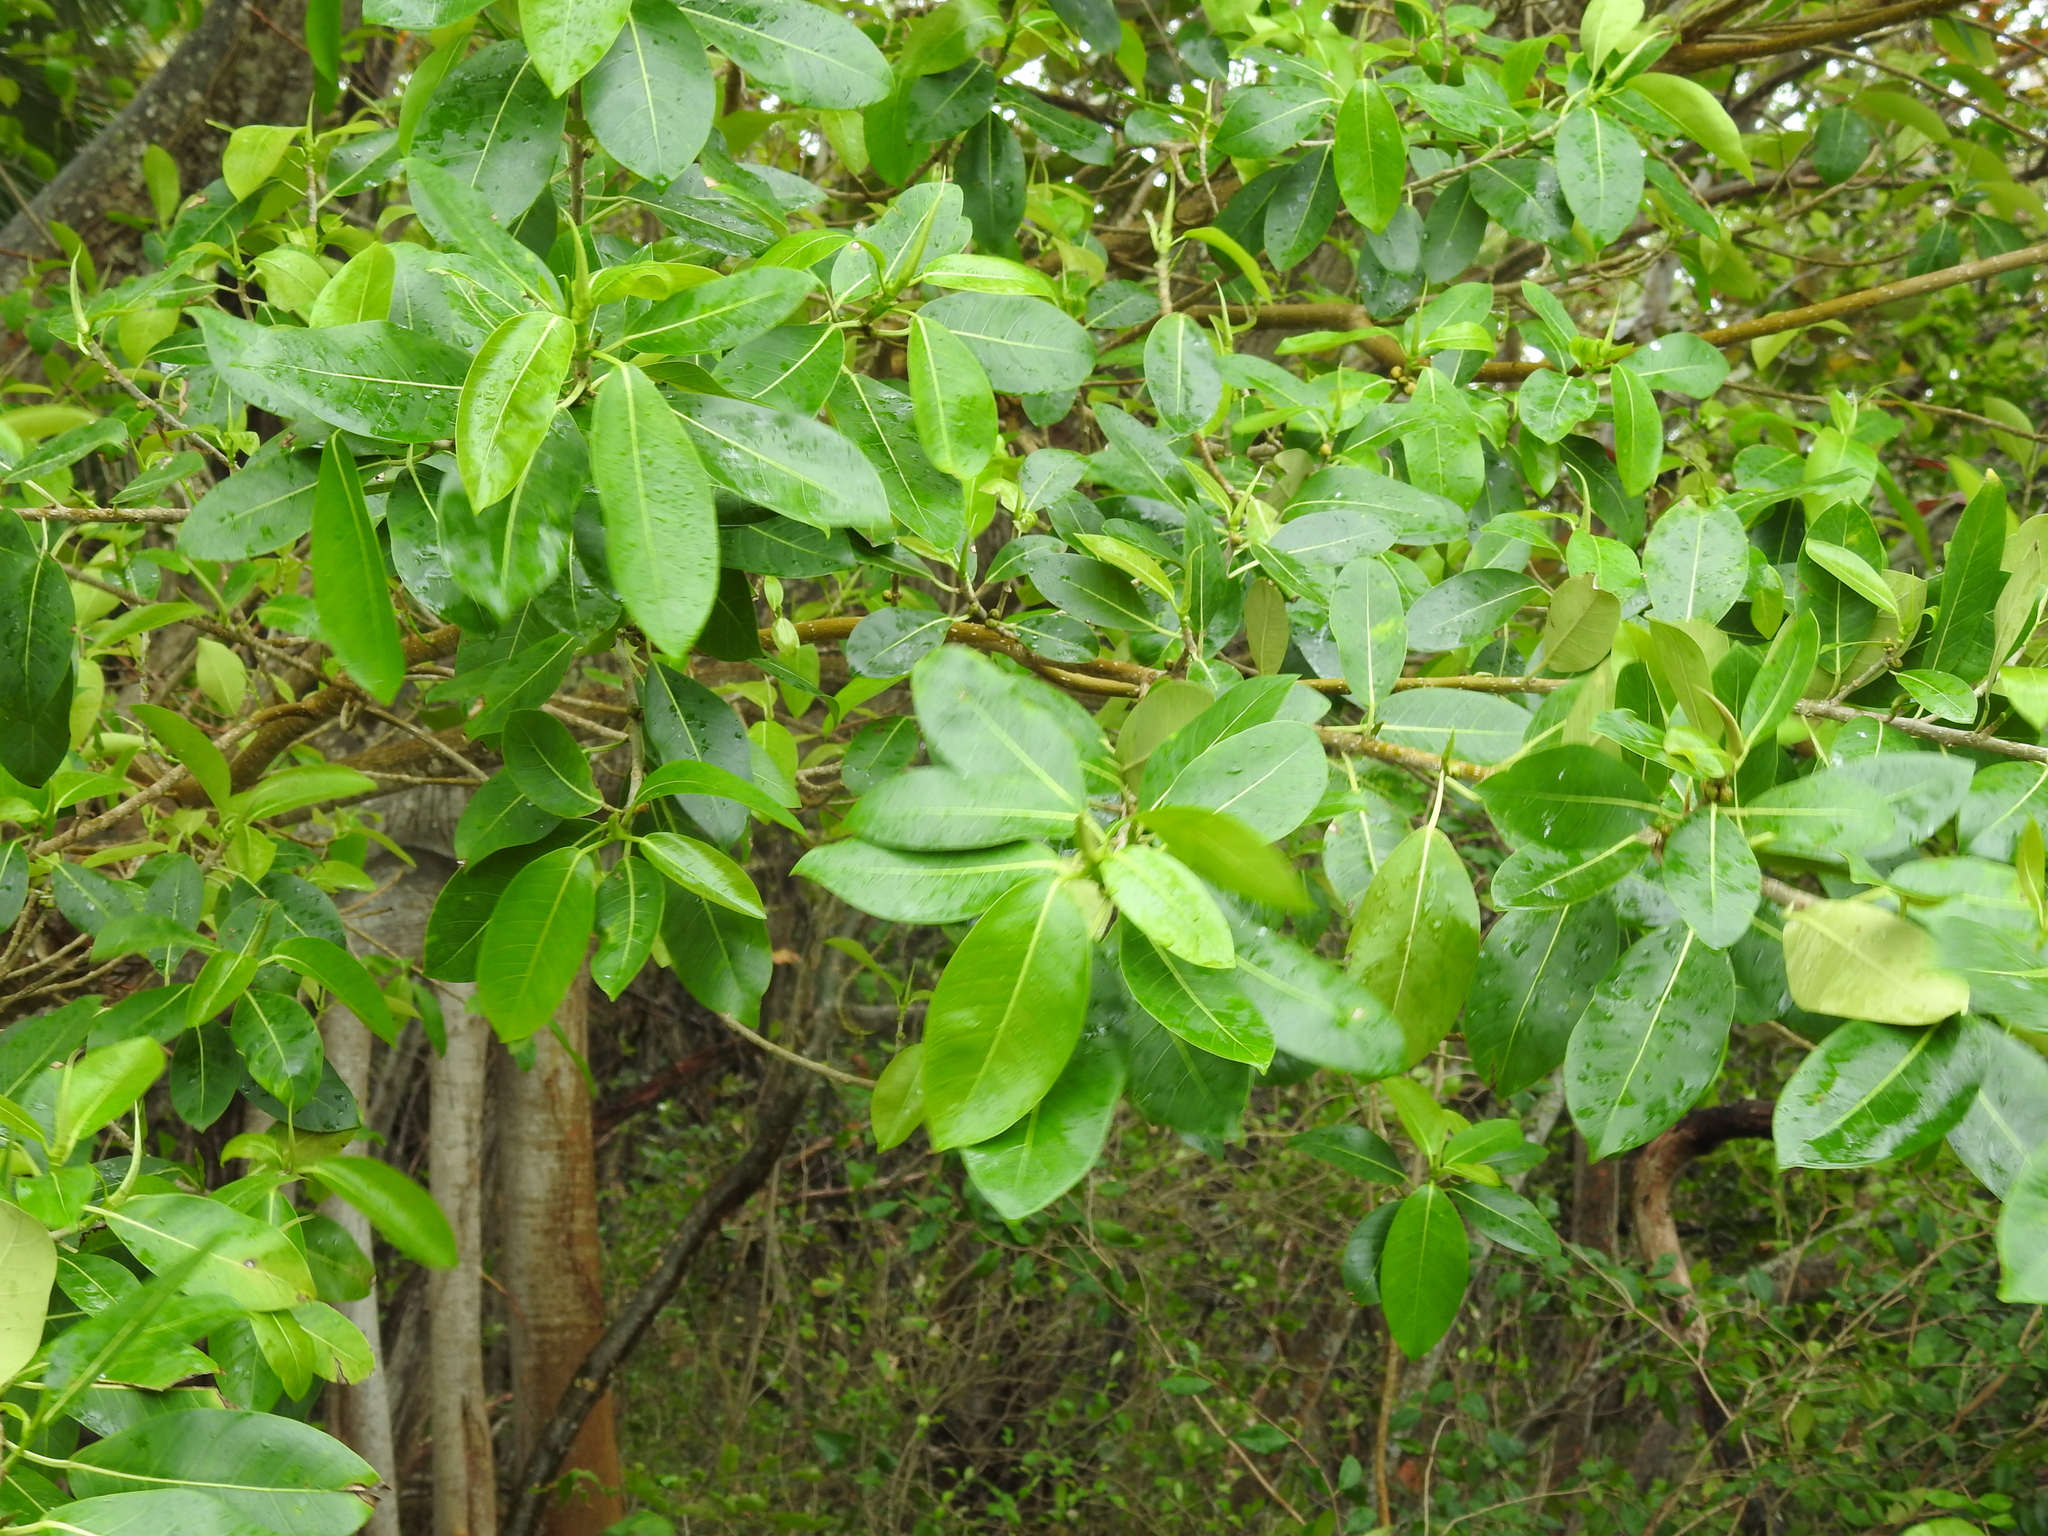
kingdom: Plantae
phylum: Tracheophyta
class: Magnoliopsida
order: Rosales
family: Moraceae
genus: Ficus
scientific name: Ficus aurea
